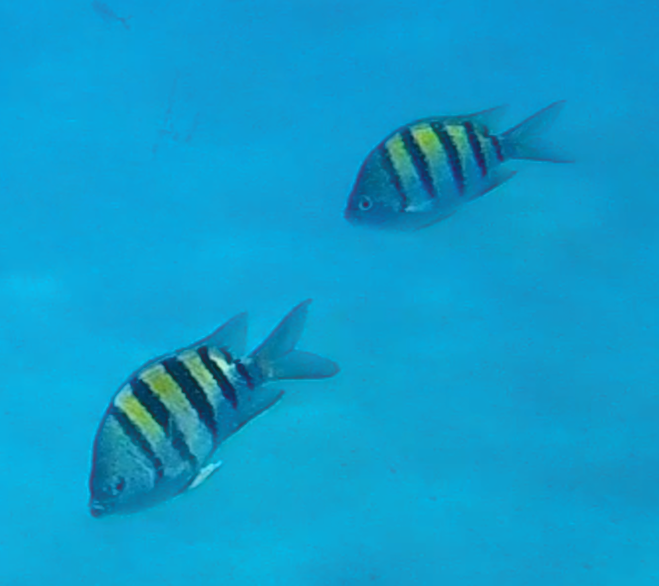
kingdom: Animalia
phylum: Chordata
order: Perciformes
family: Pomacentridae
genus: Abudefduf
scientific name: Abudefduf saxatilis
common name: Sergeant major
